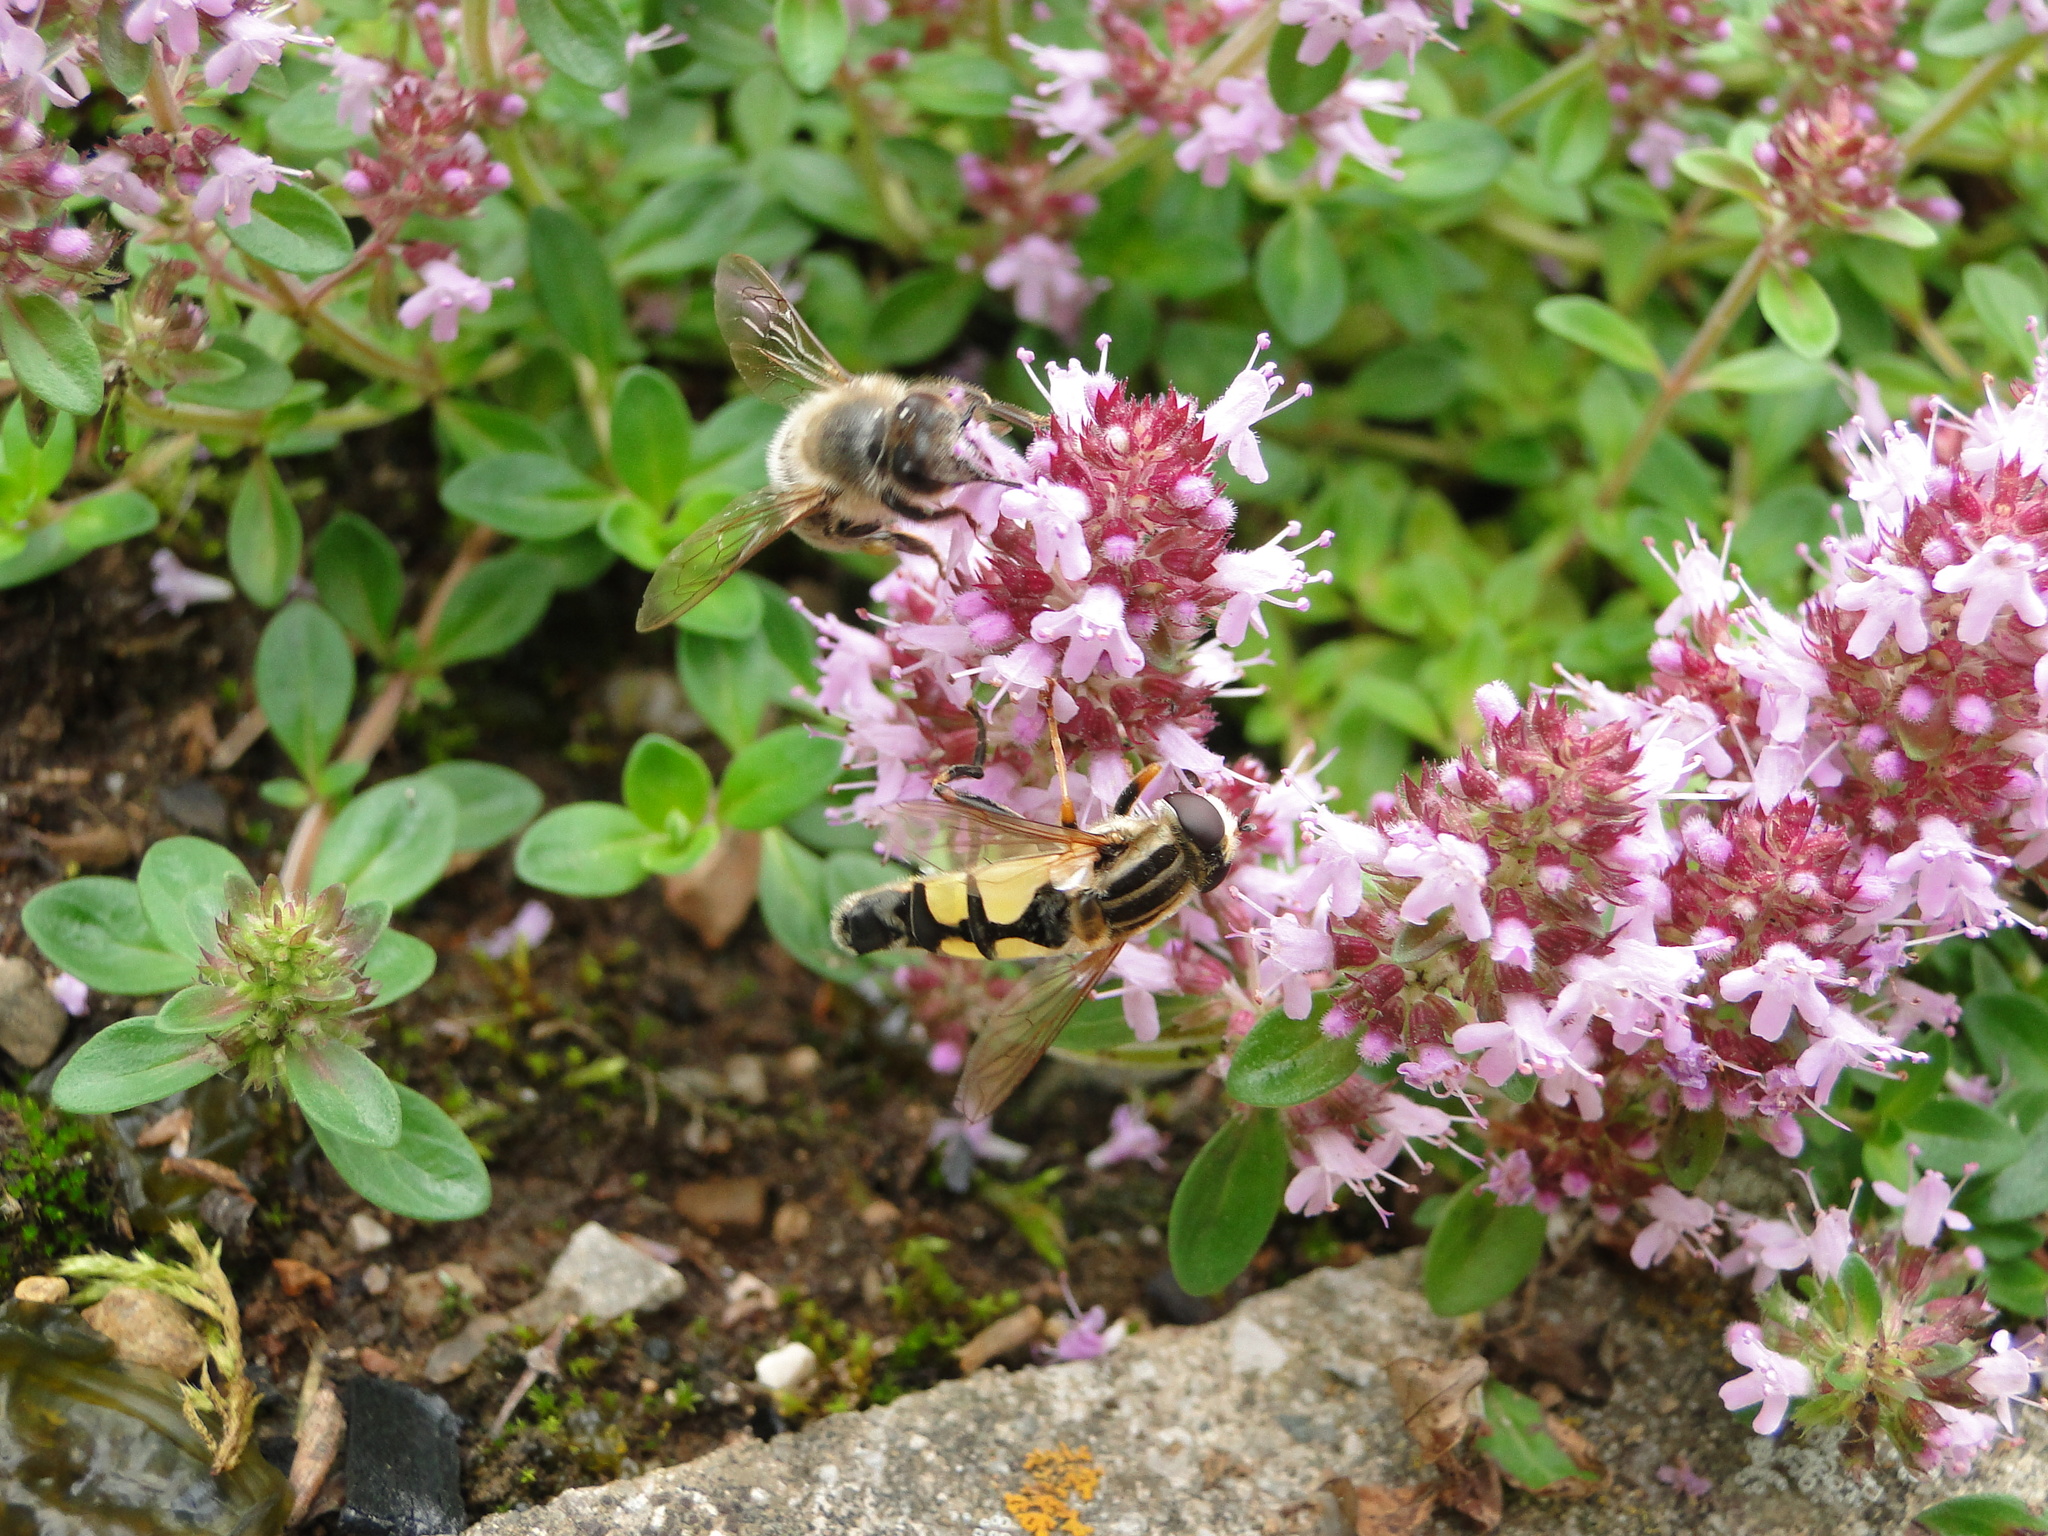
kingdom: Animalia
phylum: Arthropoda
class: Insecta
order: Diptera
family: Syrphidae
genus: Helophilus
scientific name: Helophilus trivittatus
